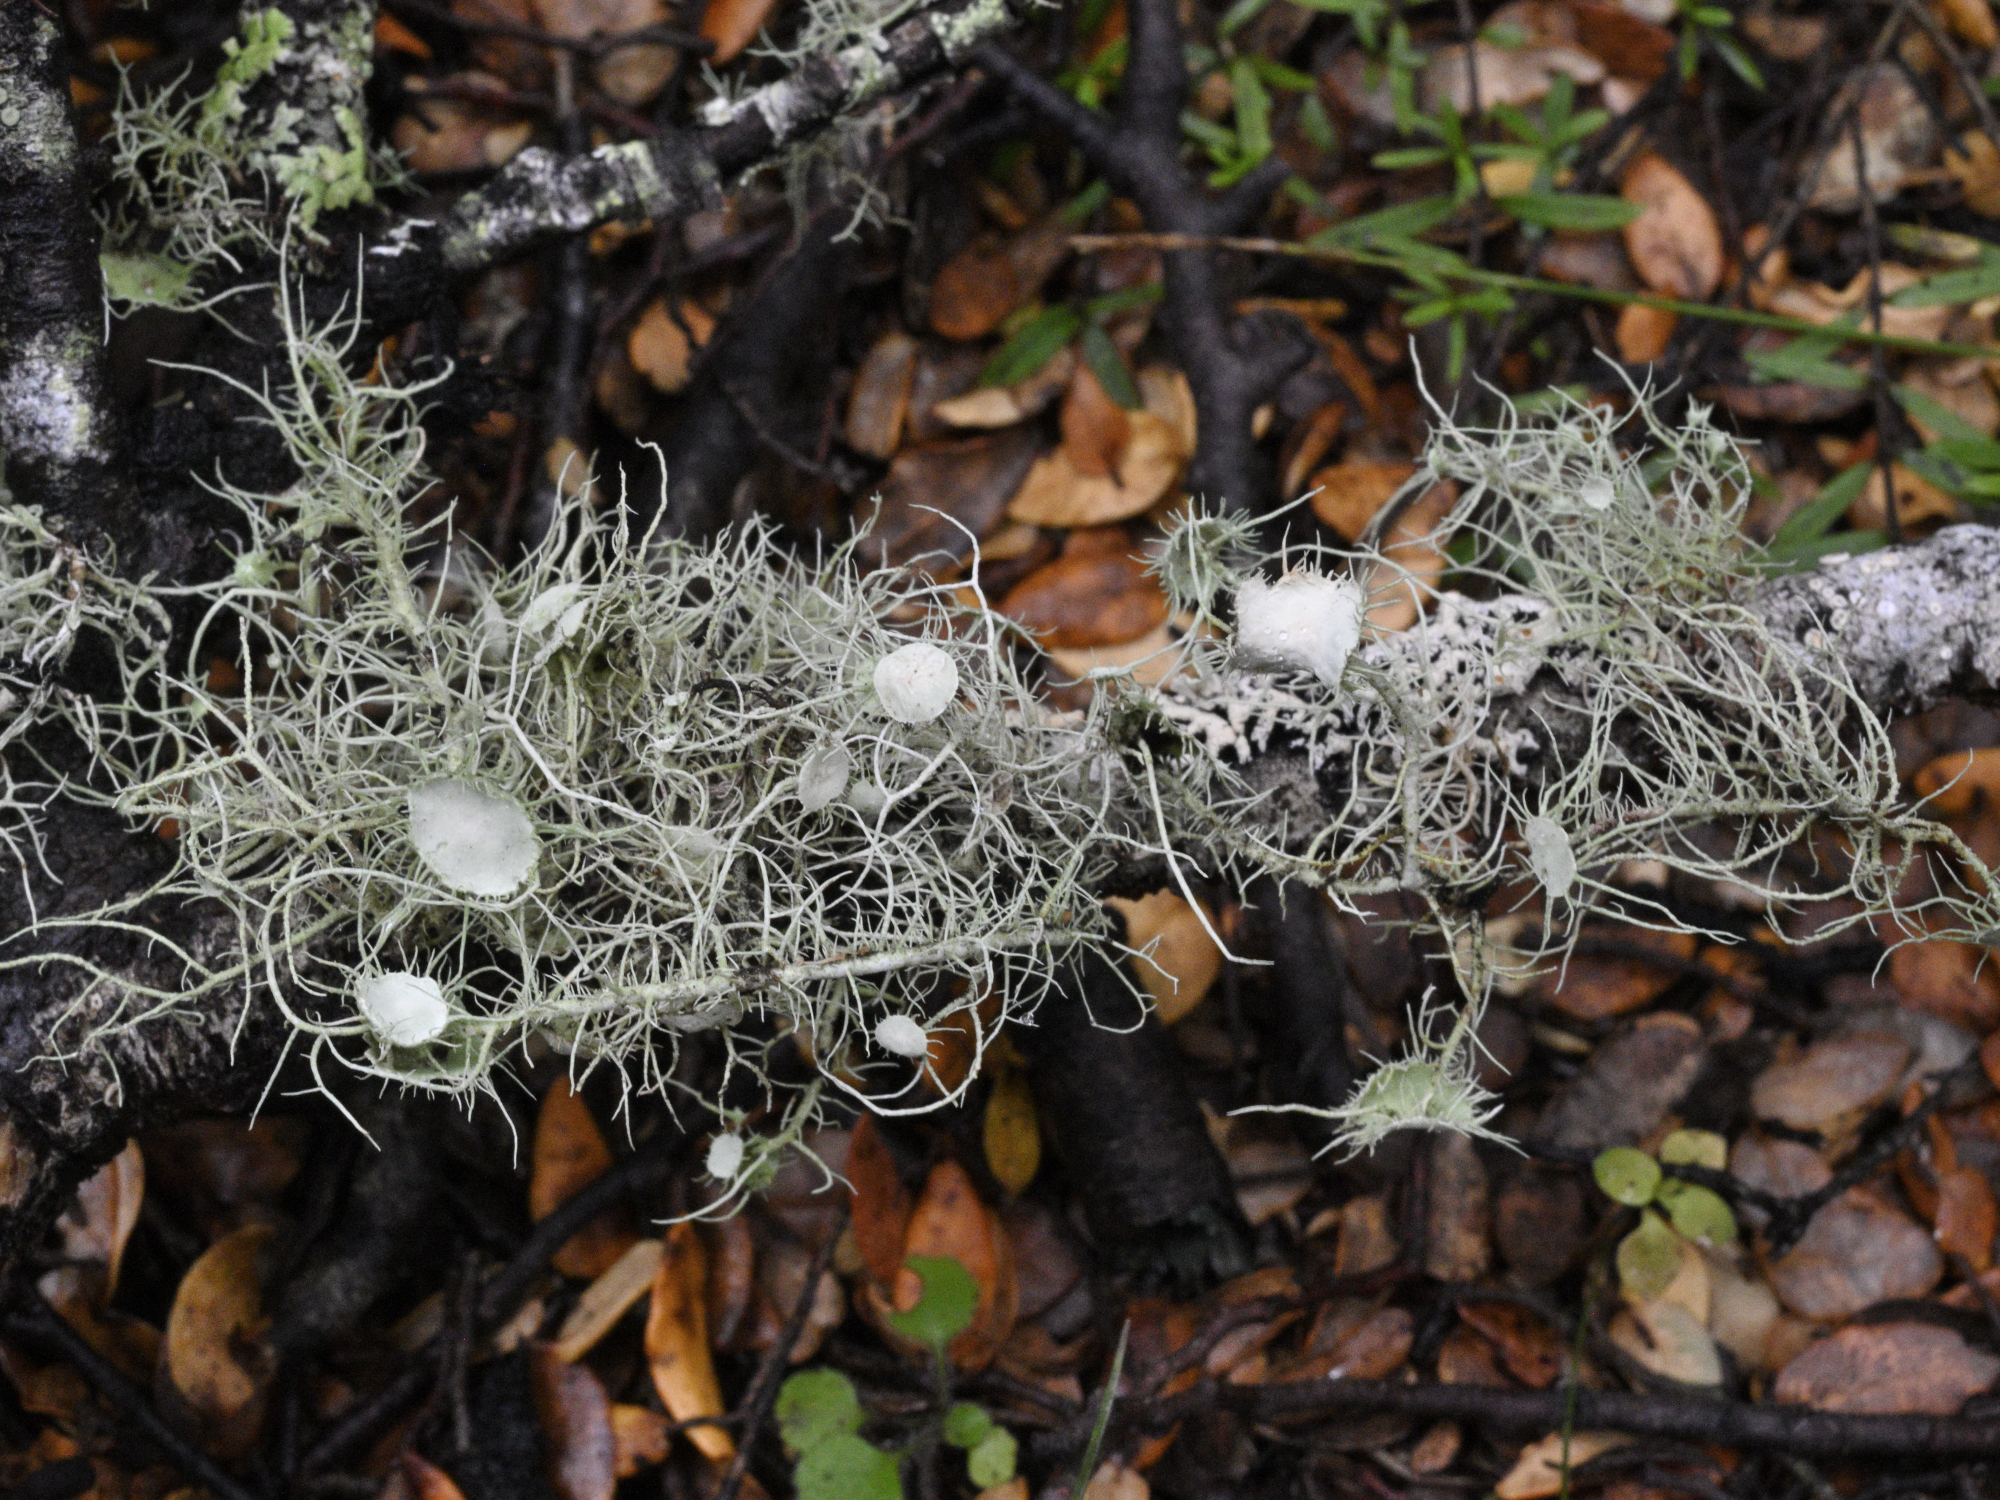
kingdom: Fungi
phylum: Ascomycota
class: Lecanoromycetes
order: Lecanorales
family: Parmeliaceae
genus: Usnea
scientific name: Usnea ciliifera
